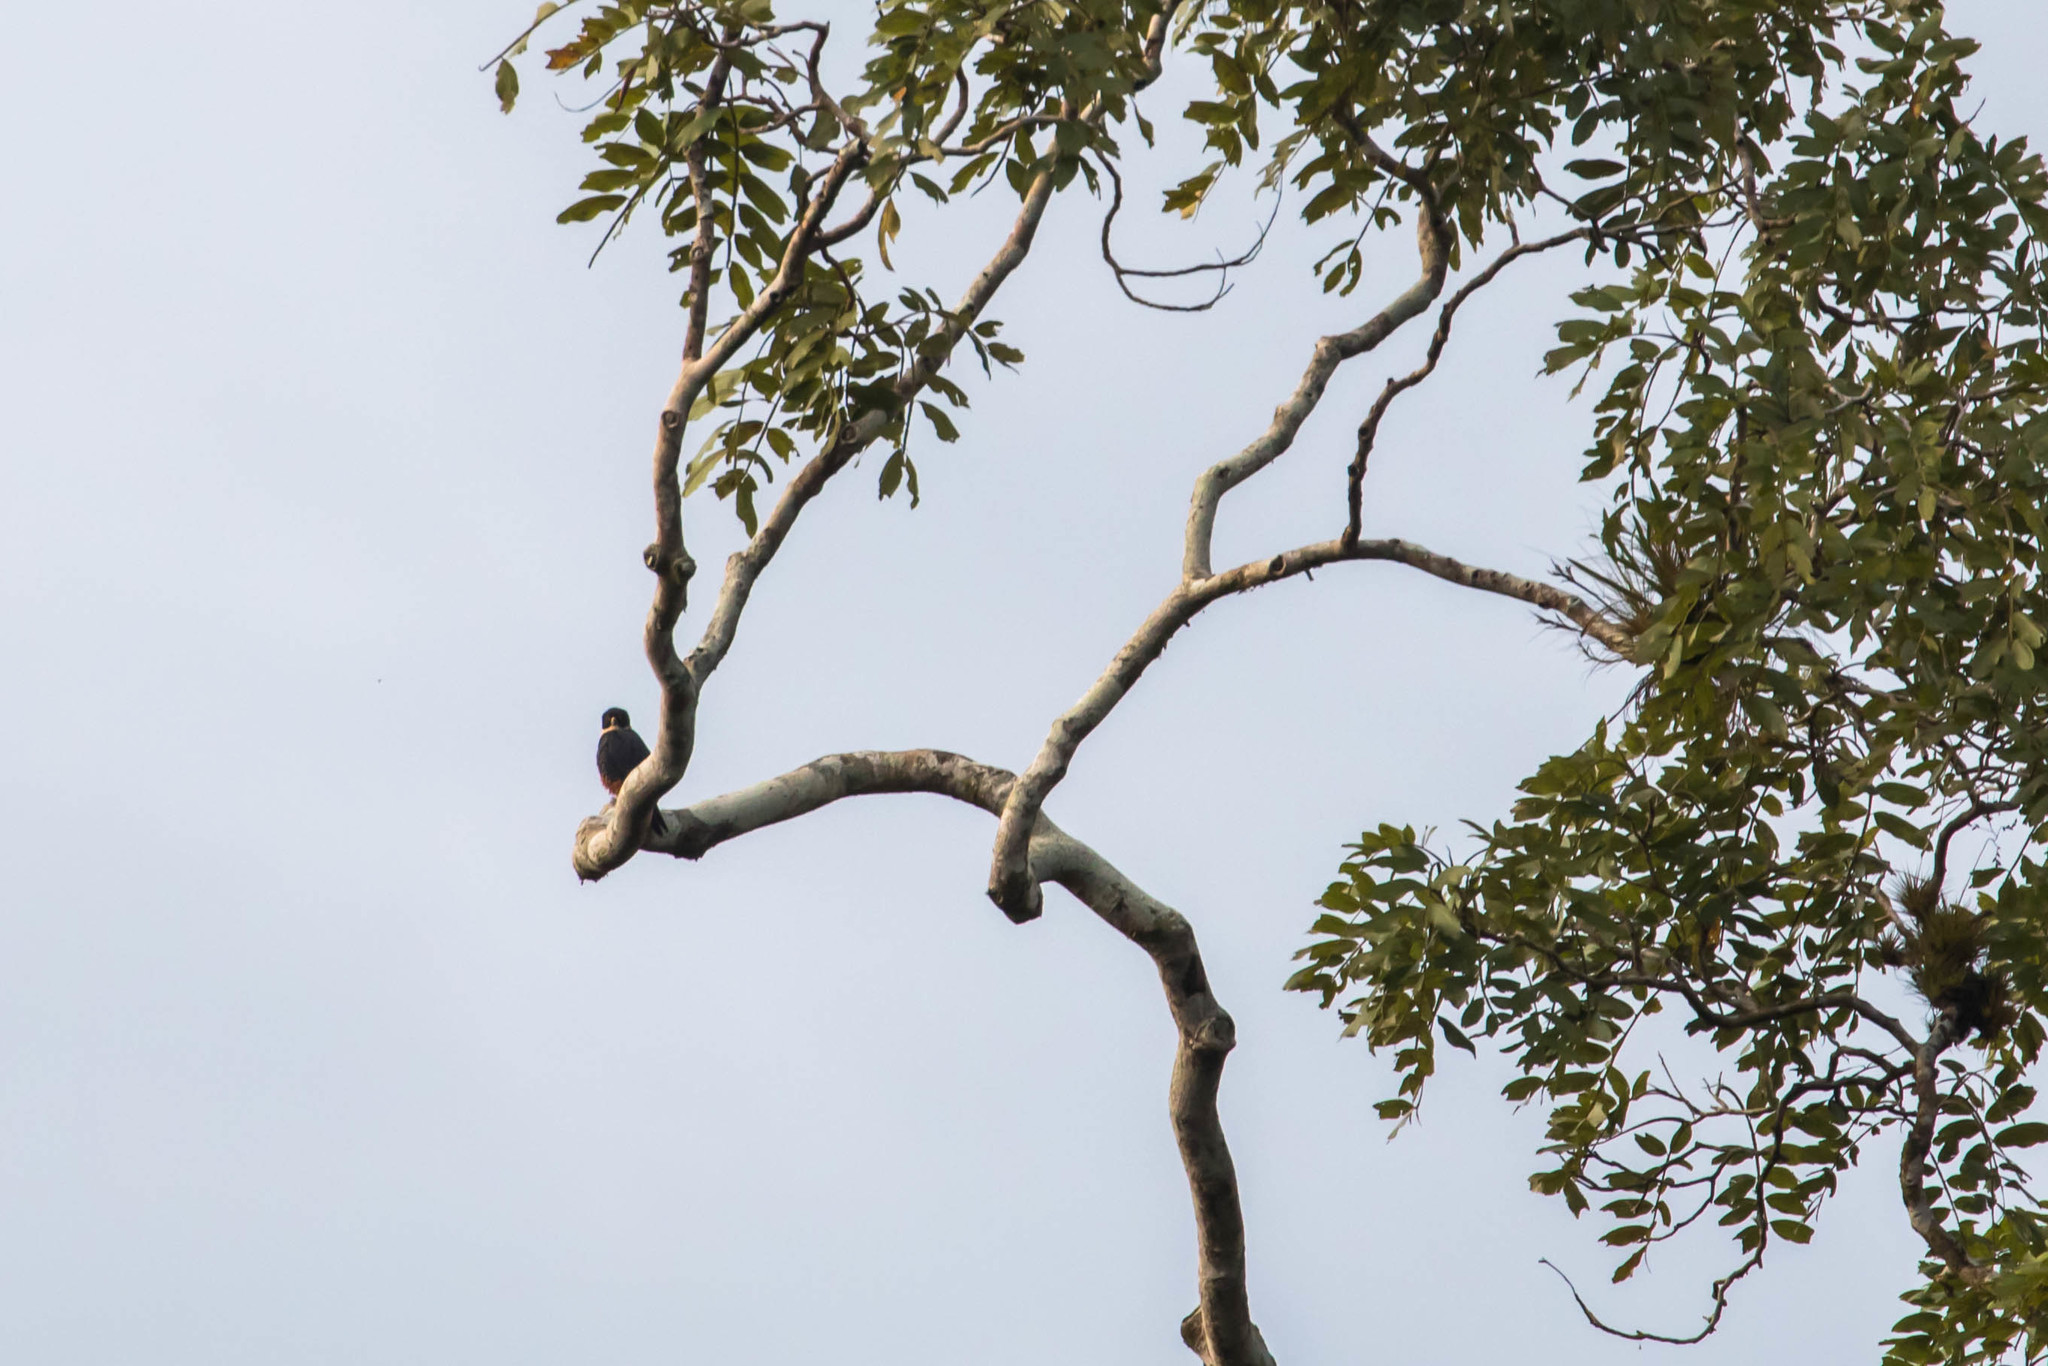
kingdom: Animalia
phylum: Chordata
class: Aves
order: Falconiformes
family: Falconidae
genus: Falco
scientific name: Falco rufigularis
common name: Bat falcon
